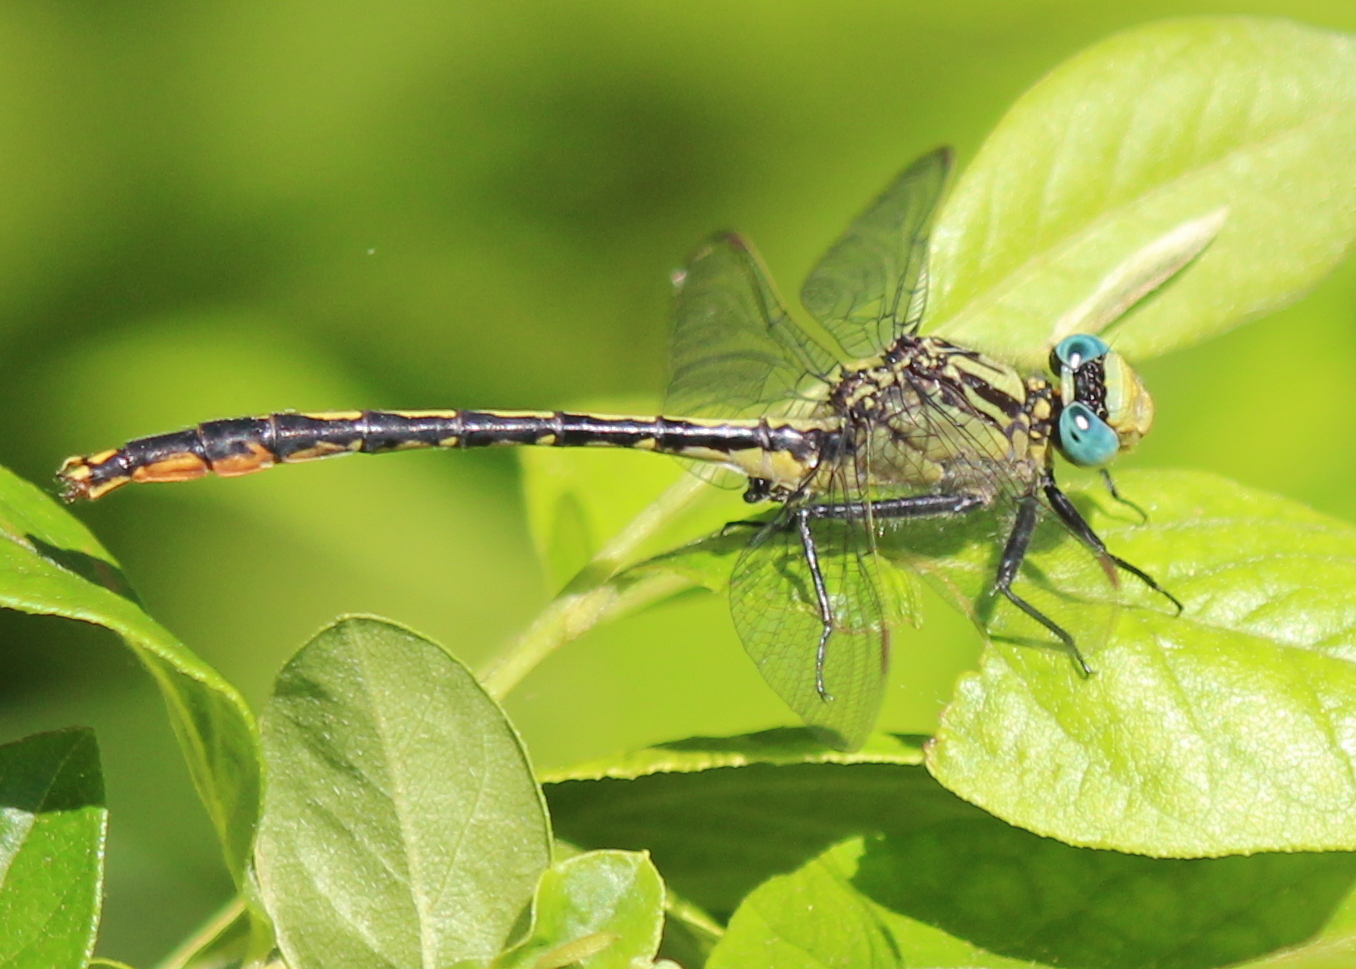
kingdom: Animalia
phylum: Arthropoda
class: Insecta
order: Odonata
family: Gomphidae
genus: Arigomphus
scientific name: Arigomphus furcifer
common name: Lilypad clubtail
